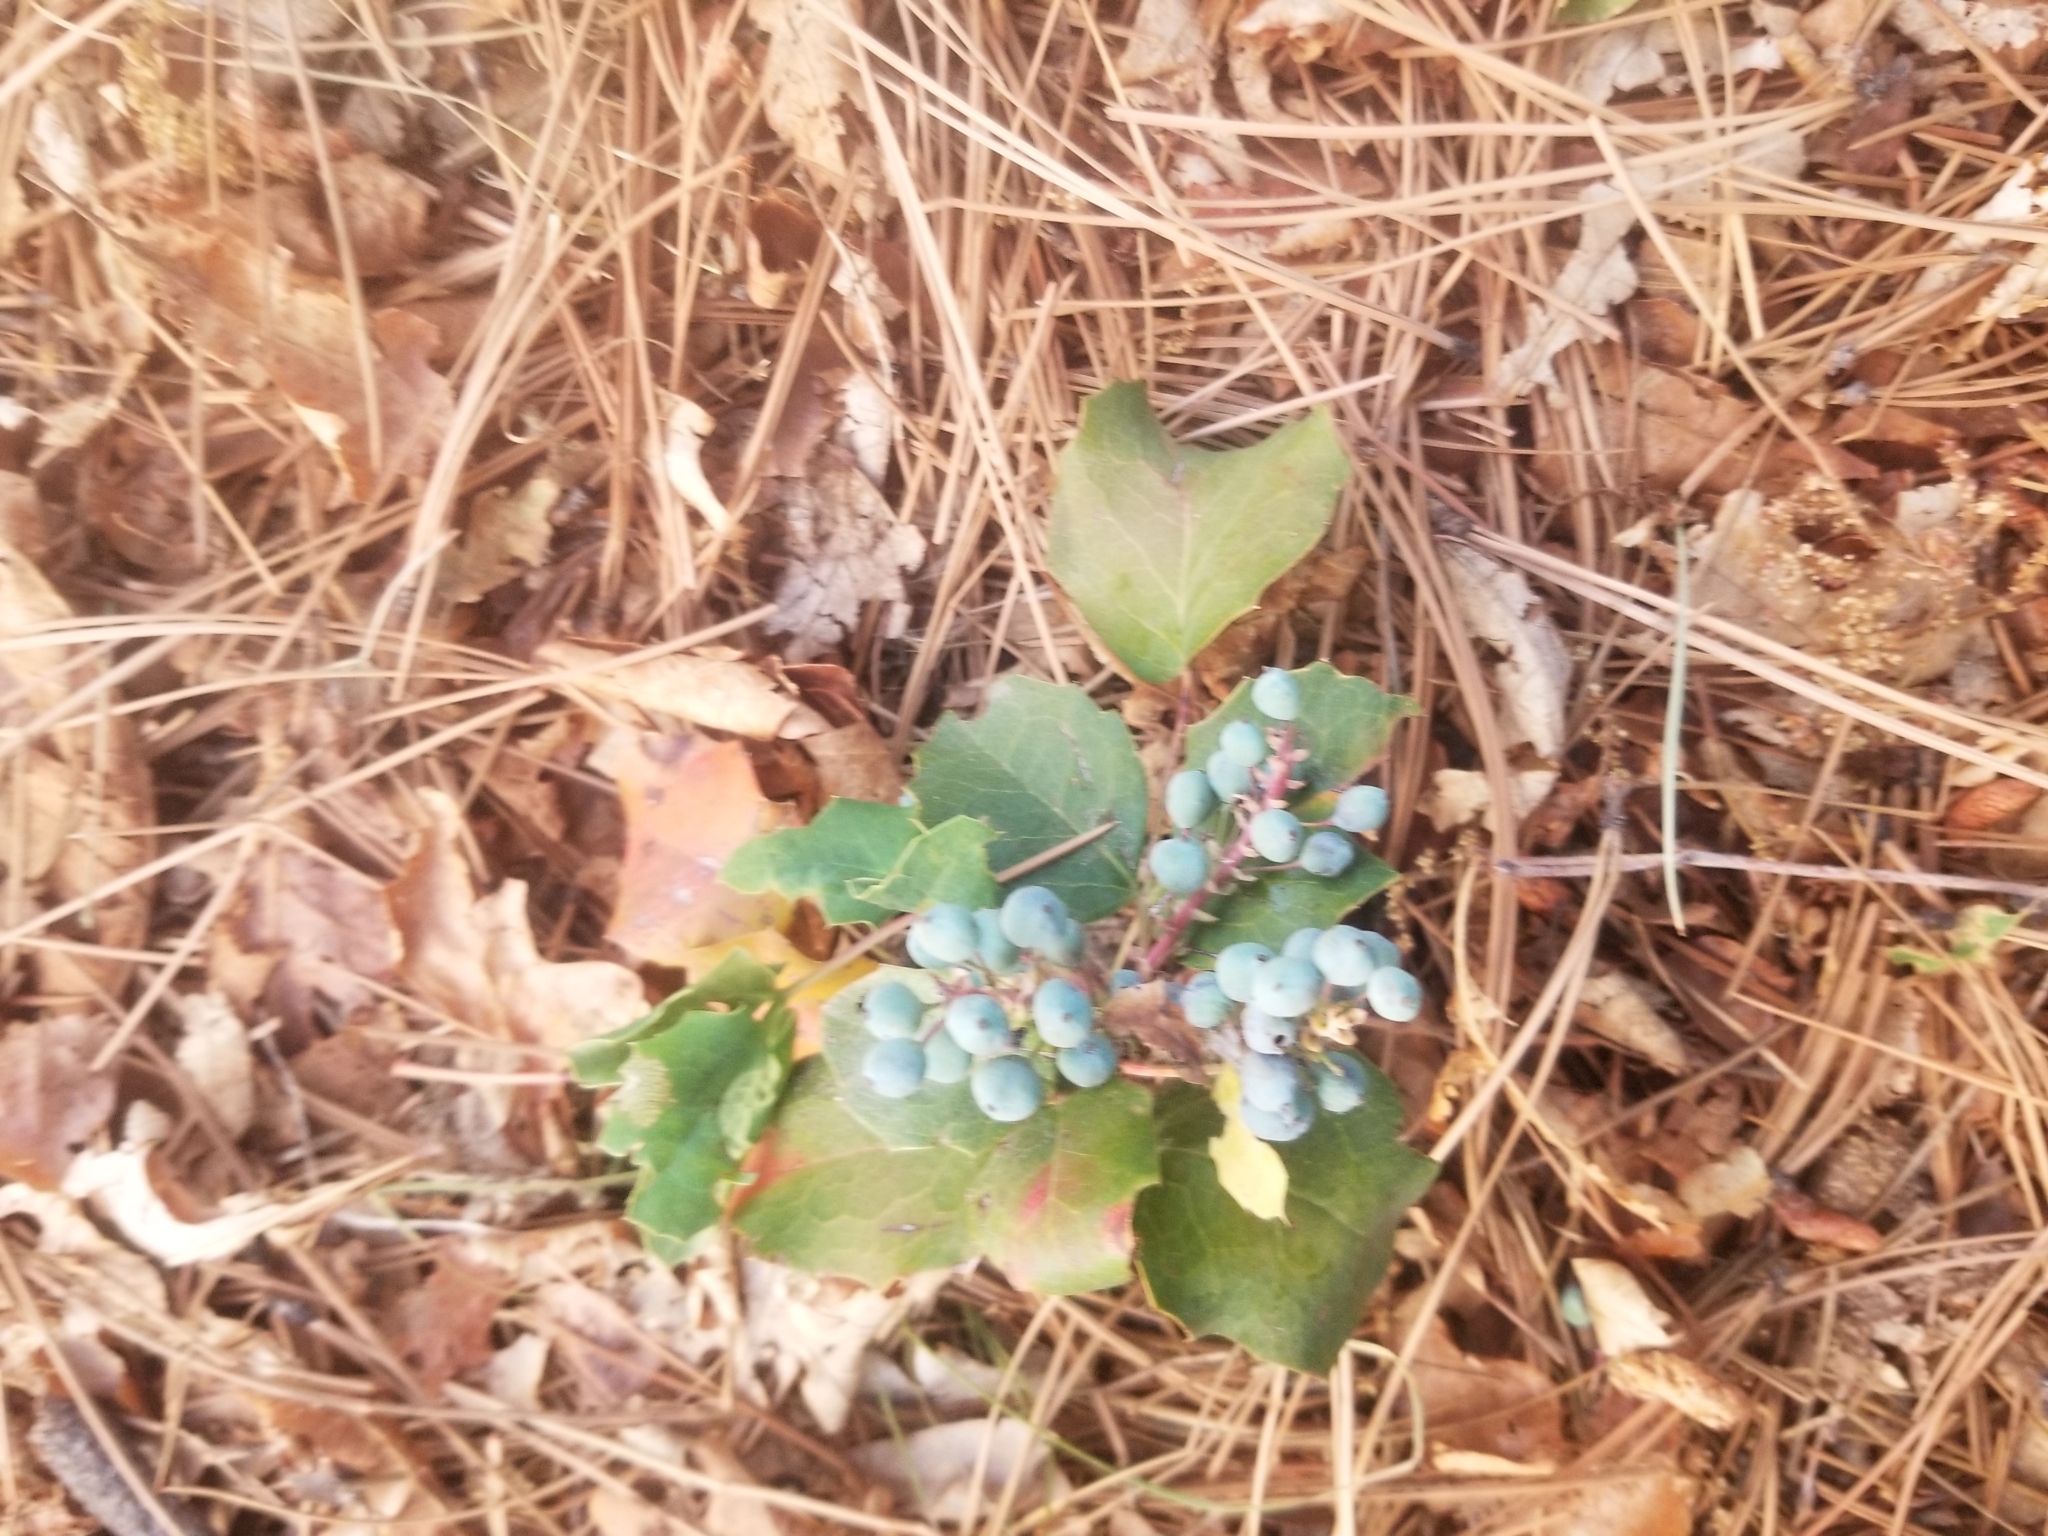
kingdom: Plantae
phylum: Tracheophyta
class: Magnoliopsida
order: Ranunculales
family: Berberidaceae
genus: Mahonia
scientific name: Mahonia repens
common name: Creeping oregon-grape
